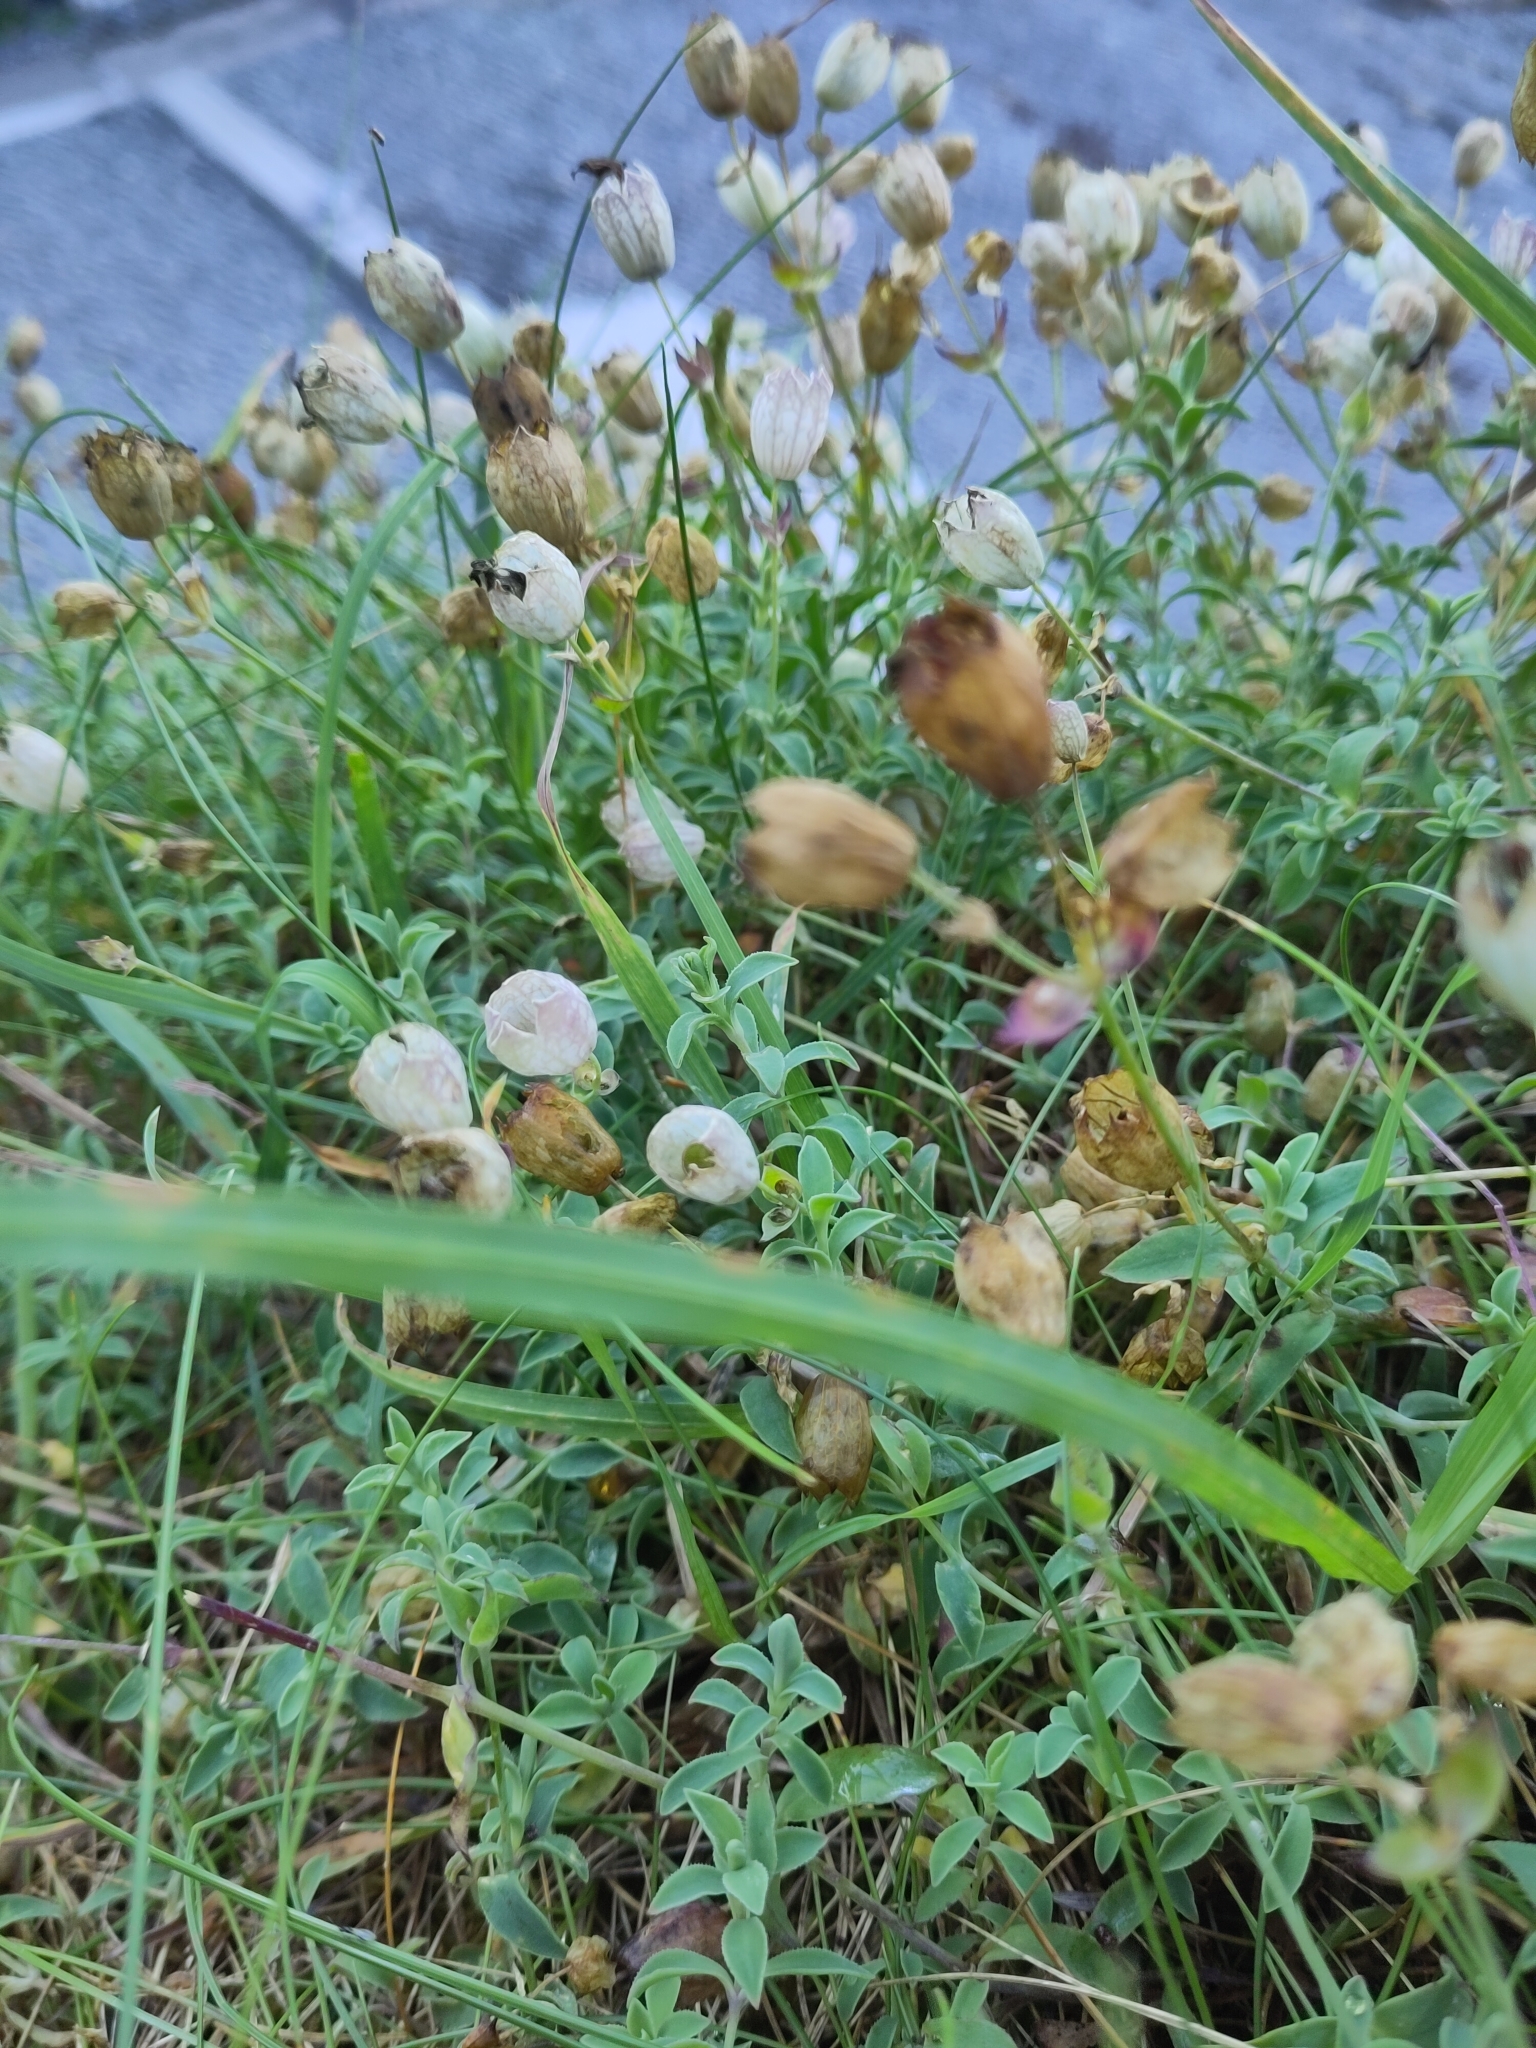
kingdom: Plantae
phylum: Tracheophyta
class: Magnoliopsida
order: Caryophyllales
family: Caryophyllaceae
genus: Silene
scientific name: Silene uniflora
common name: Sea campion
